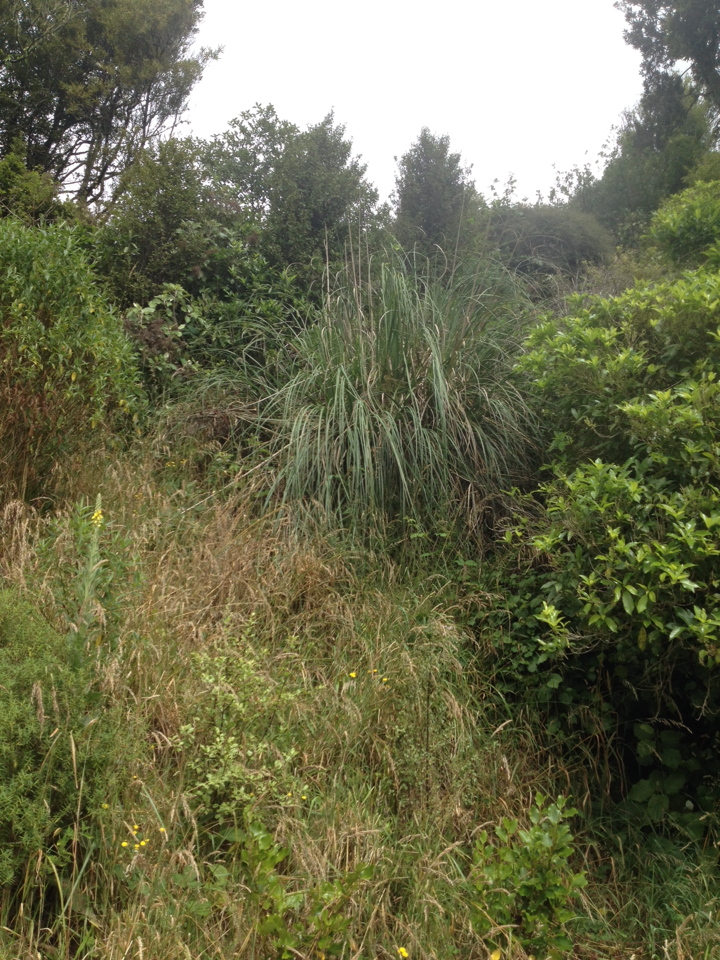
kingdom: Plantae
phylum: Tracheophyta
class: Liliopsida
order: Poales
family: Poaceae
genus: Cortaderia
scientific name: Cortaderia selloana
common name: Uruguayan pampas grass
